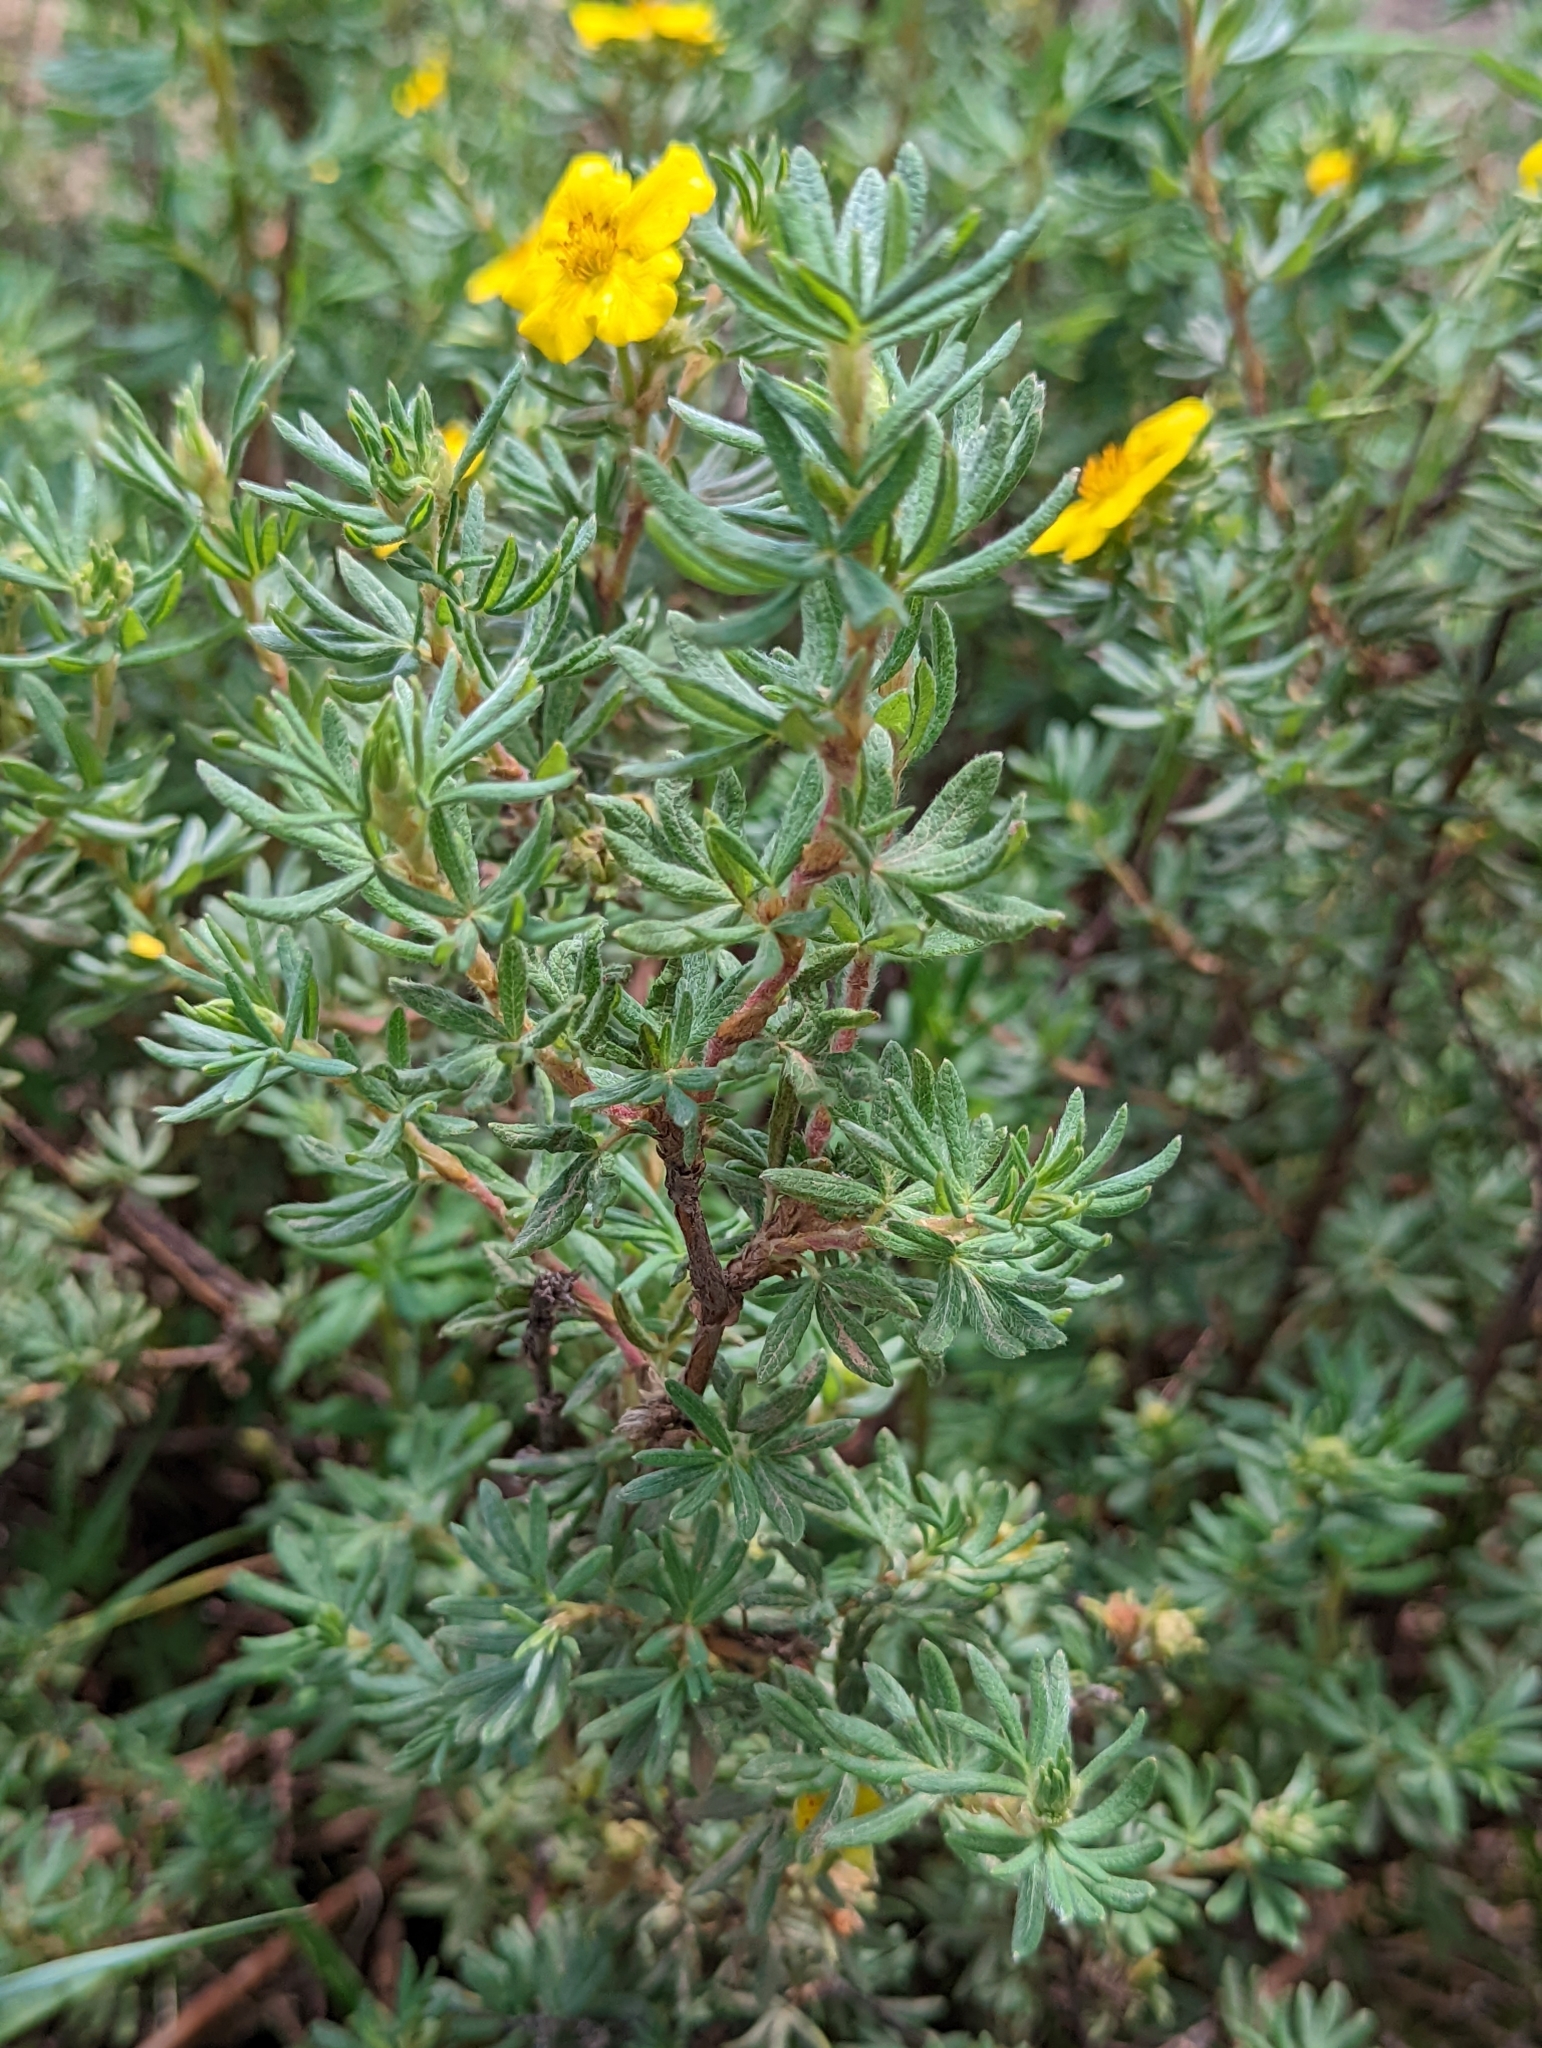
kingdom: Plantae
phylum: Tracheophyta
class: Magnoliopsida
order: Rosales
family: Rosaceae
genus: Dasiphora
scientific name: Dasiphora fruticosa
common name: Shrubby cinquefoil
